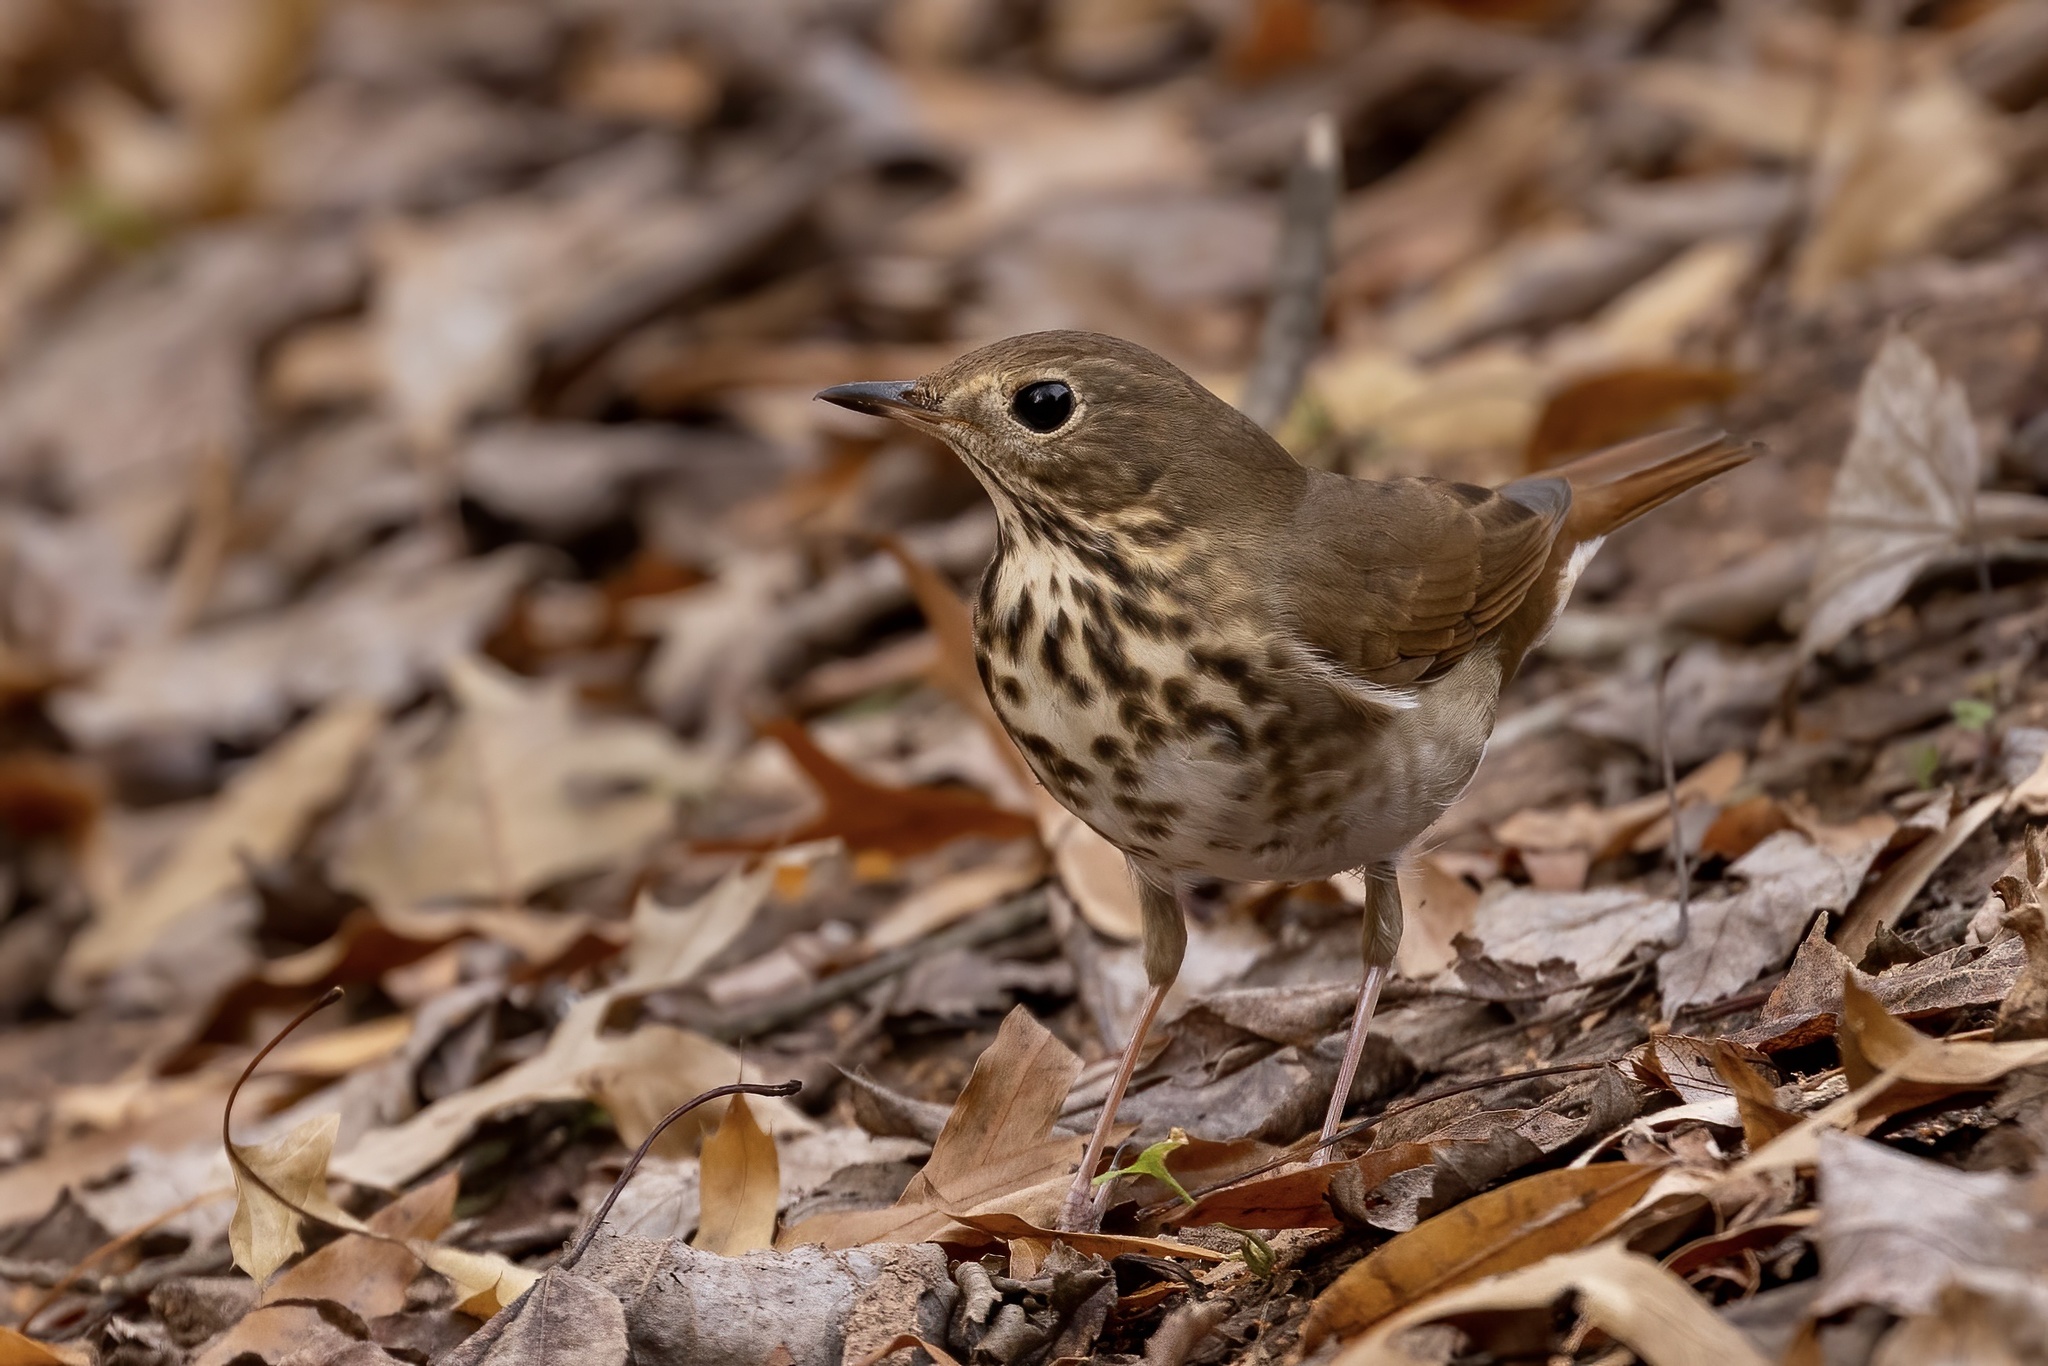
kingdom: Animalia
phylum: Chordata
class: Aves
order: Passeriformes
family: Turdidae
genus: Catharus
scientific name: Catharus guttatus
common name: Hermit thrush
